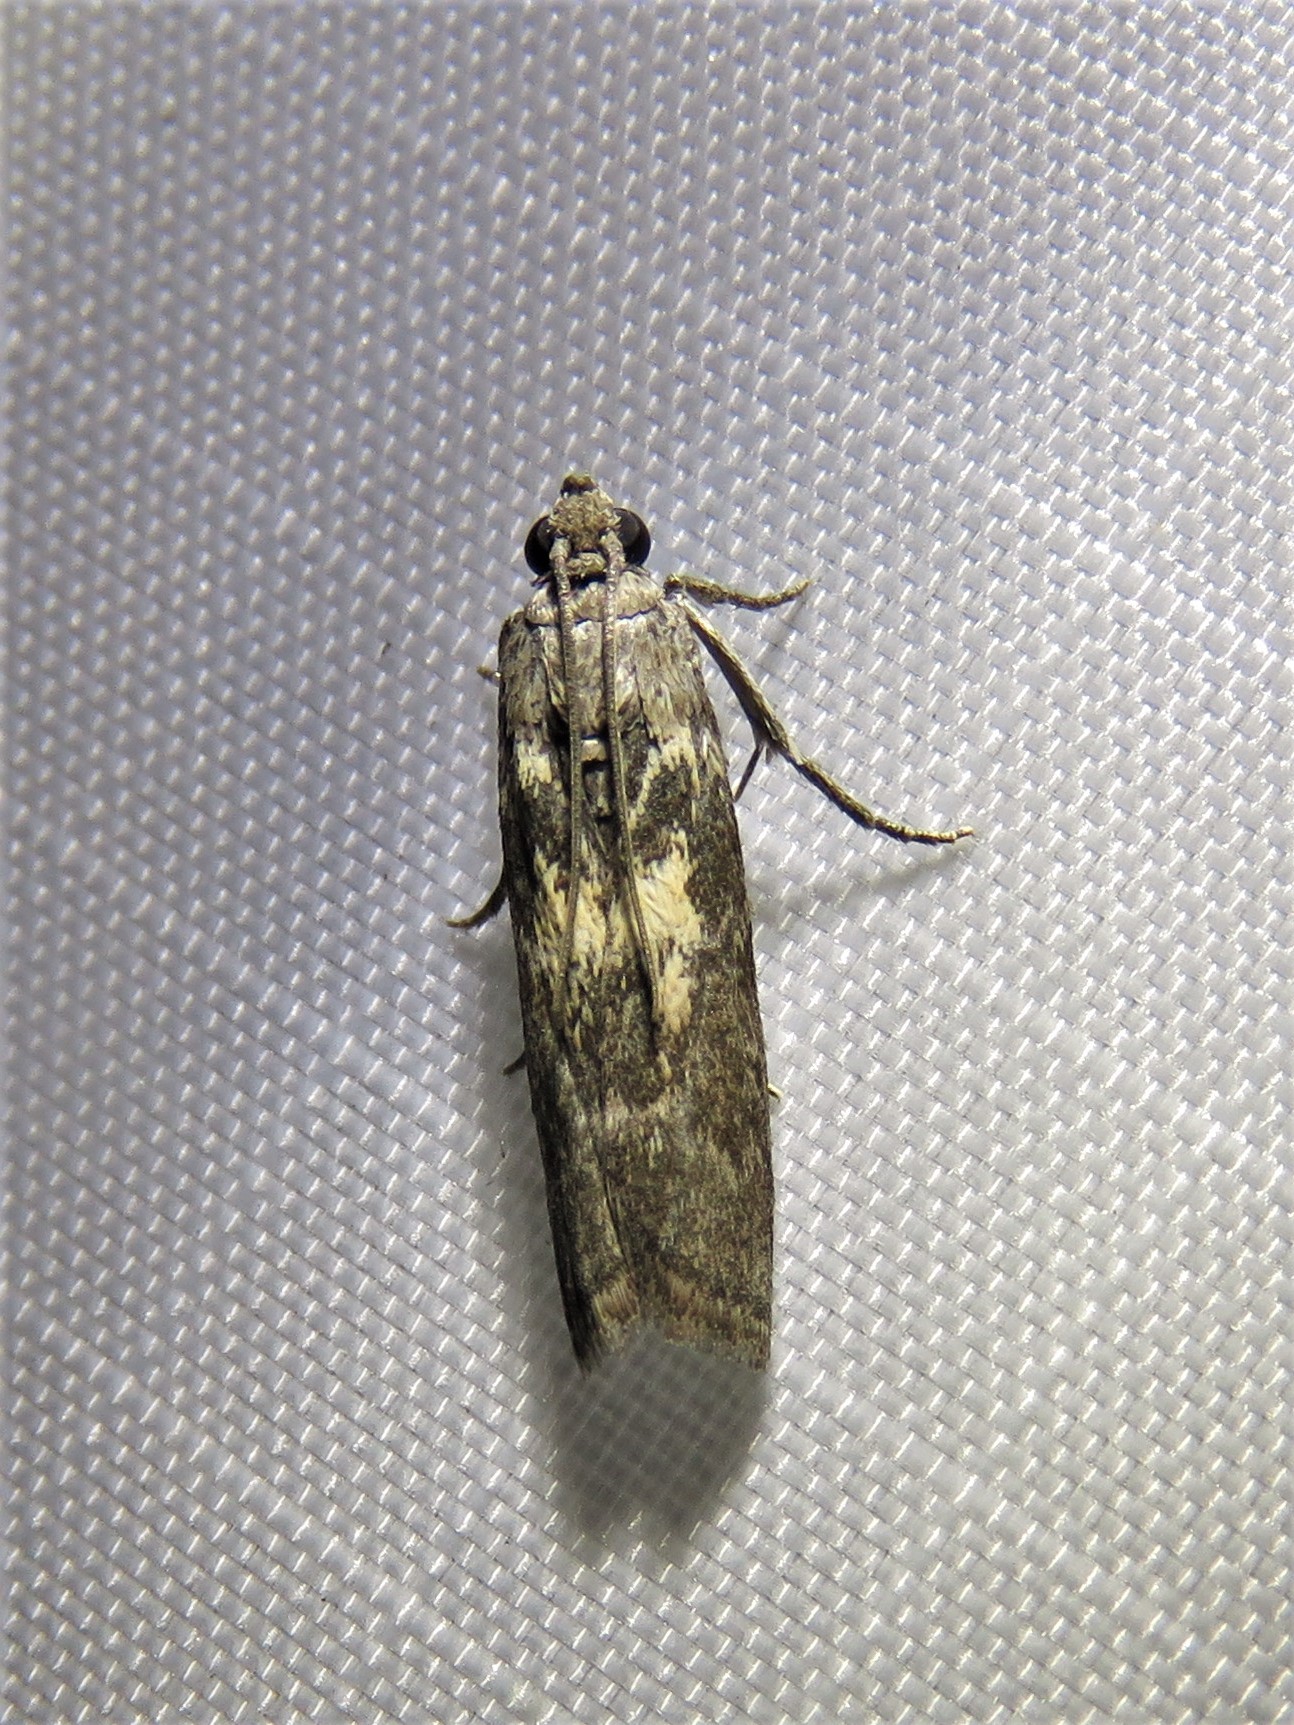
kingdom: Animalia
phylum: Arthropoda
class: Insecta
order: Lepidoptera
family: Pyralidae
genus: Tacoma
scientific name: Tacoma feriella
